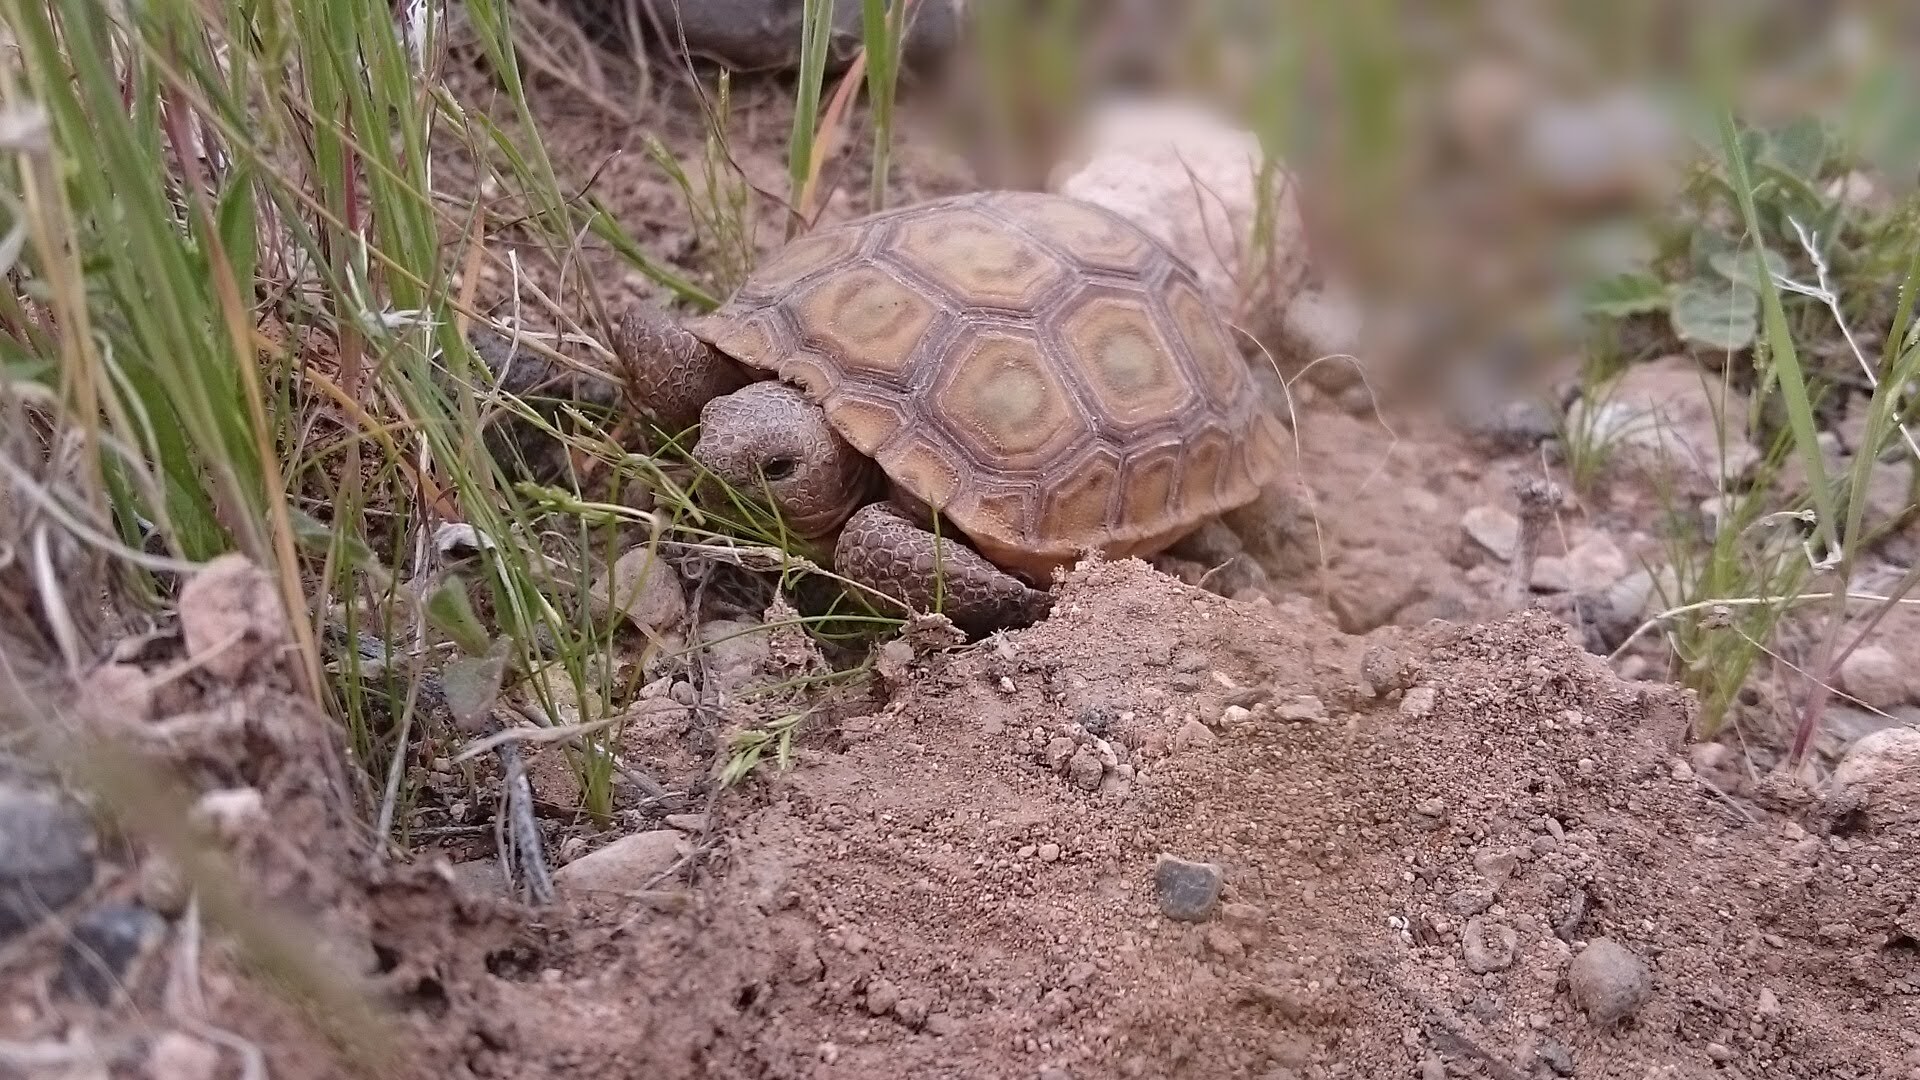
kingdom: Animalia
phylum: Chordata
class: Testudines
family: Testudinidae
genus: Gopherus
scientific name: Gopherus agassizii
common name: Mojave desert tortoise
